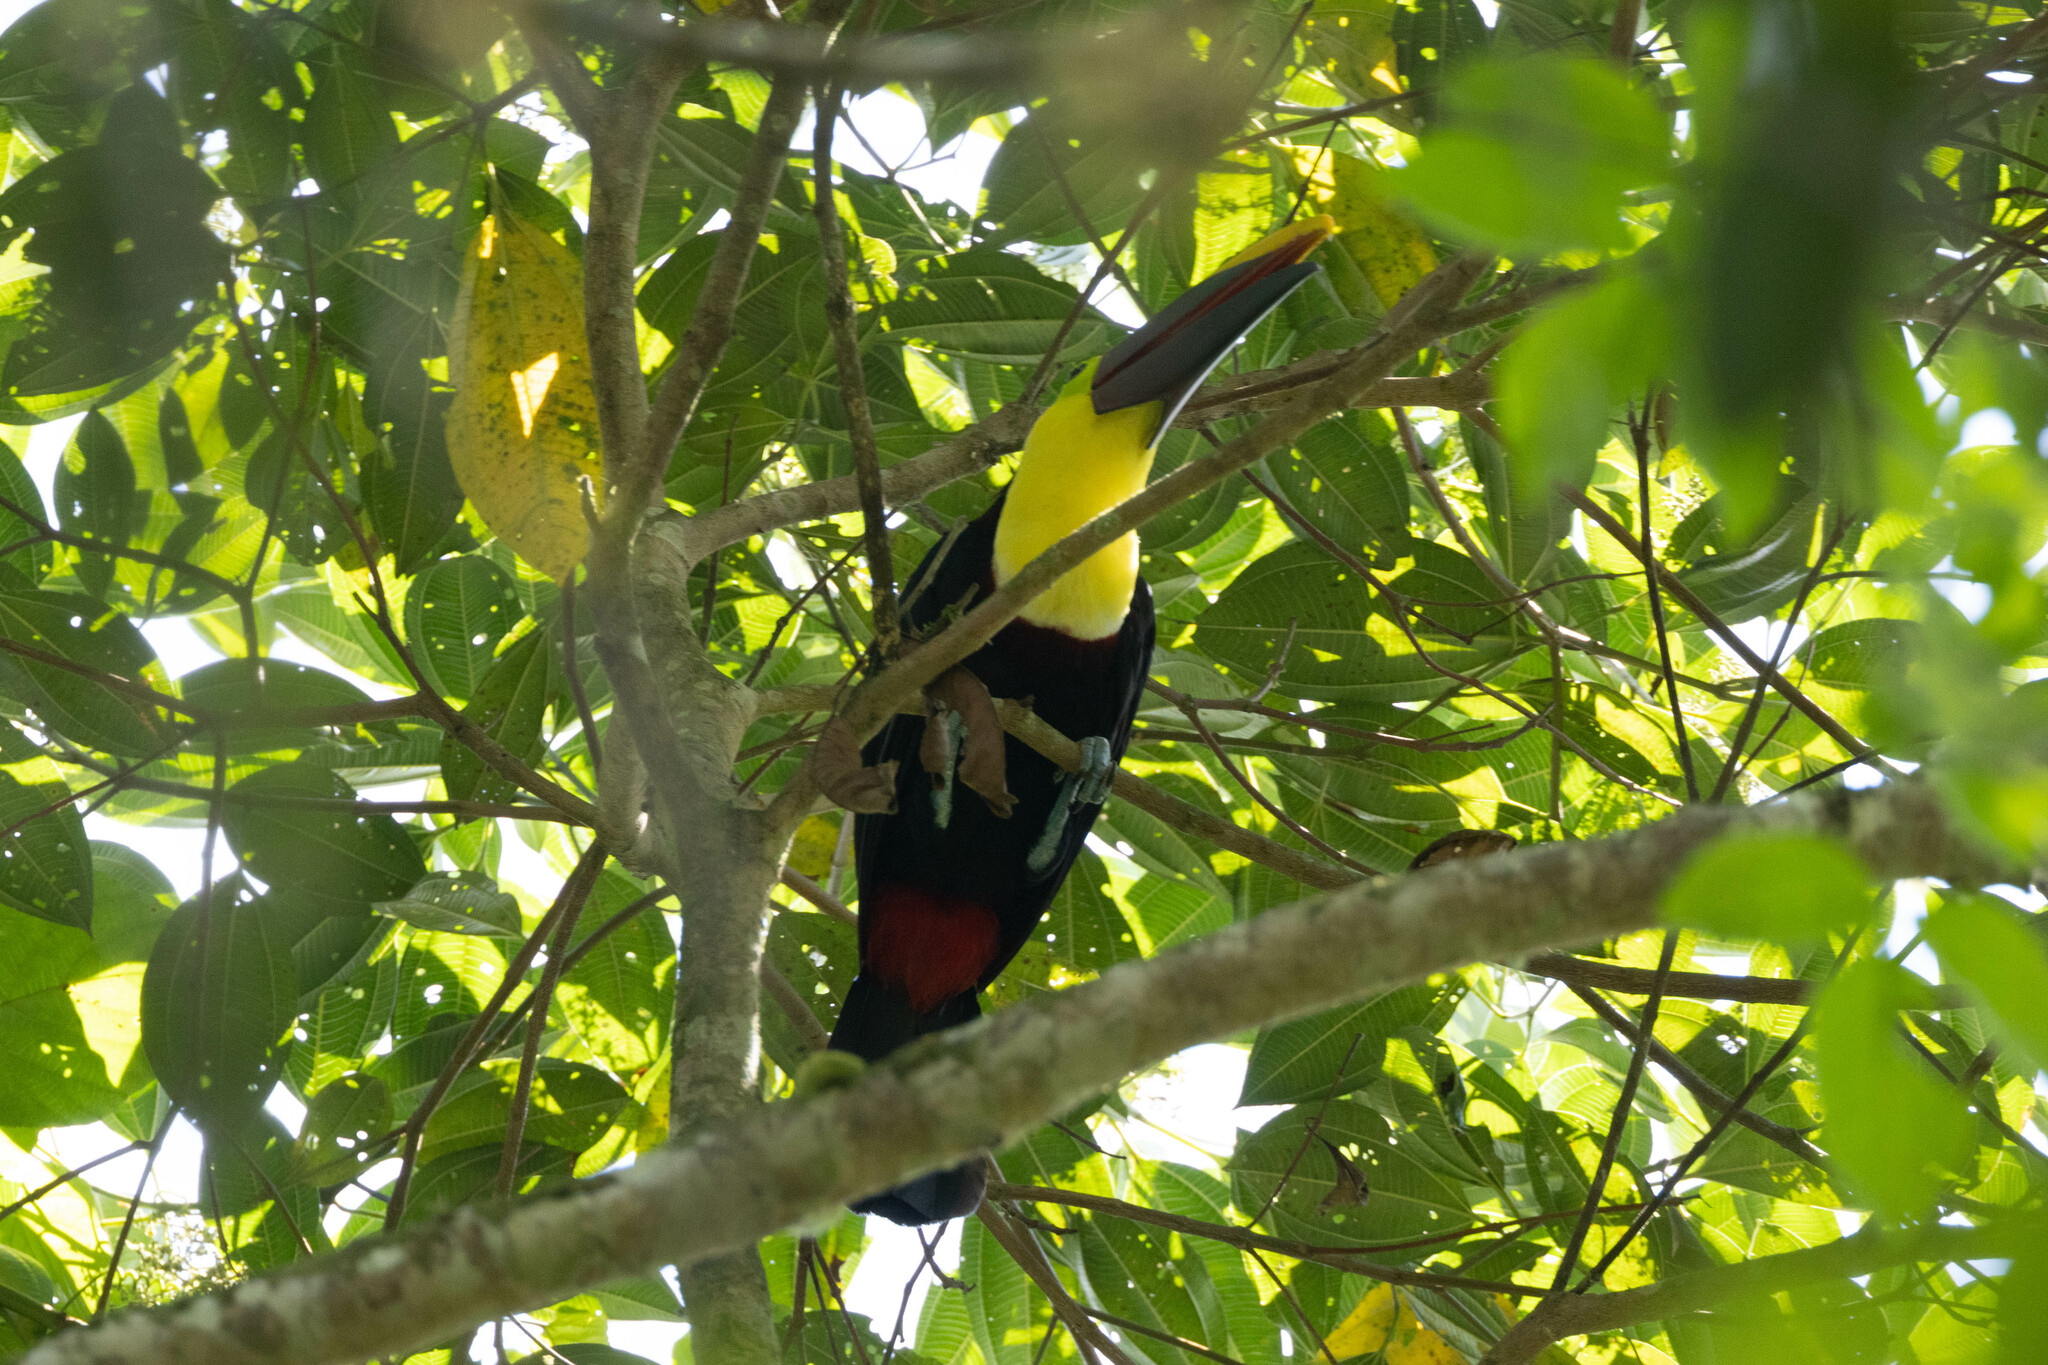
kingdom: Animalia
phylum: Chordata
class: Aves
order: Piciformes
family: Ramphastidae
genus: Ramphastos
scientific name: Ramphastos ambiguus
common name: Yellow-throated toucan
